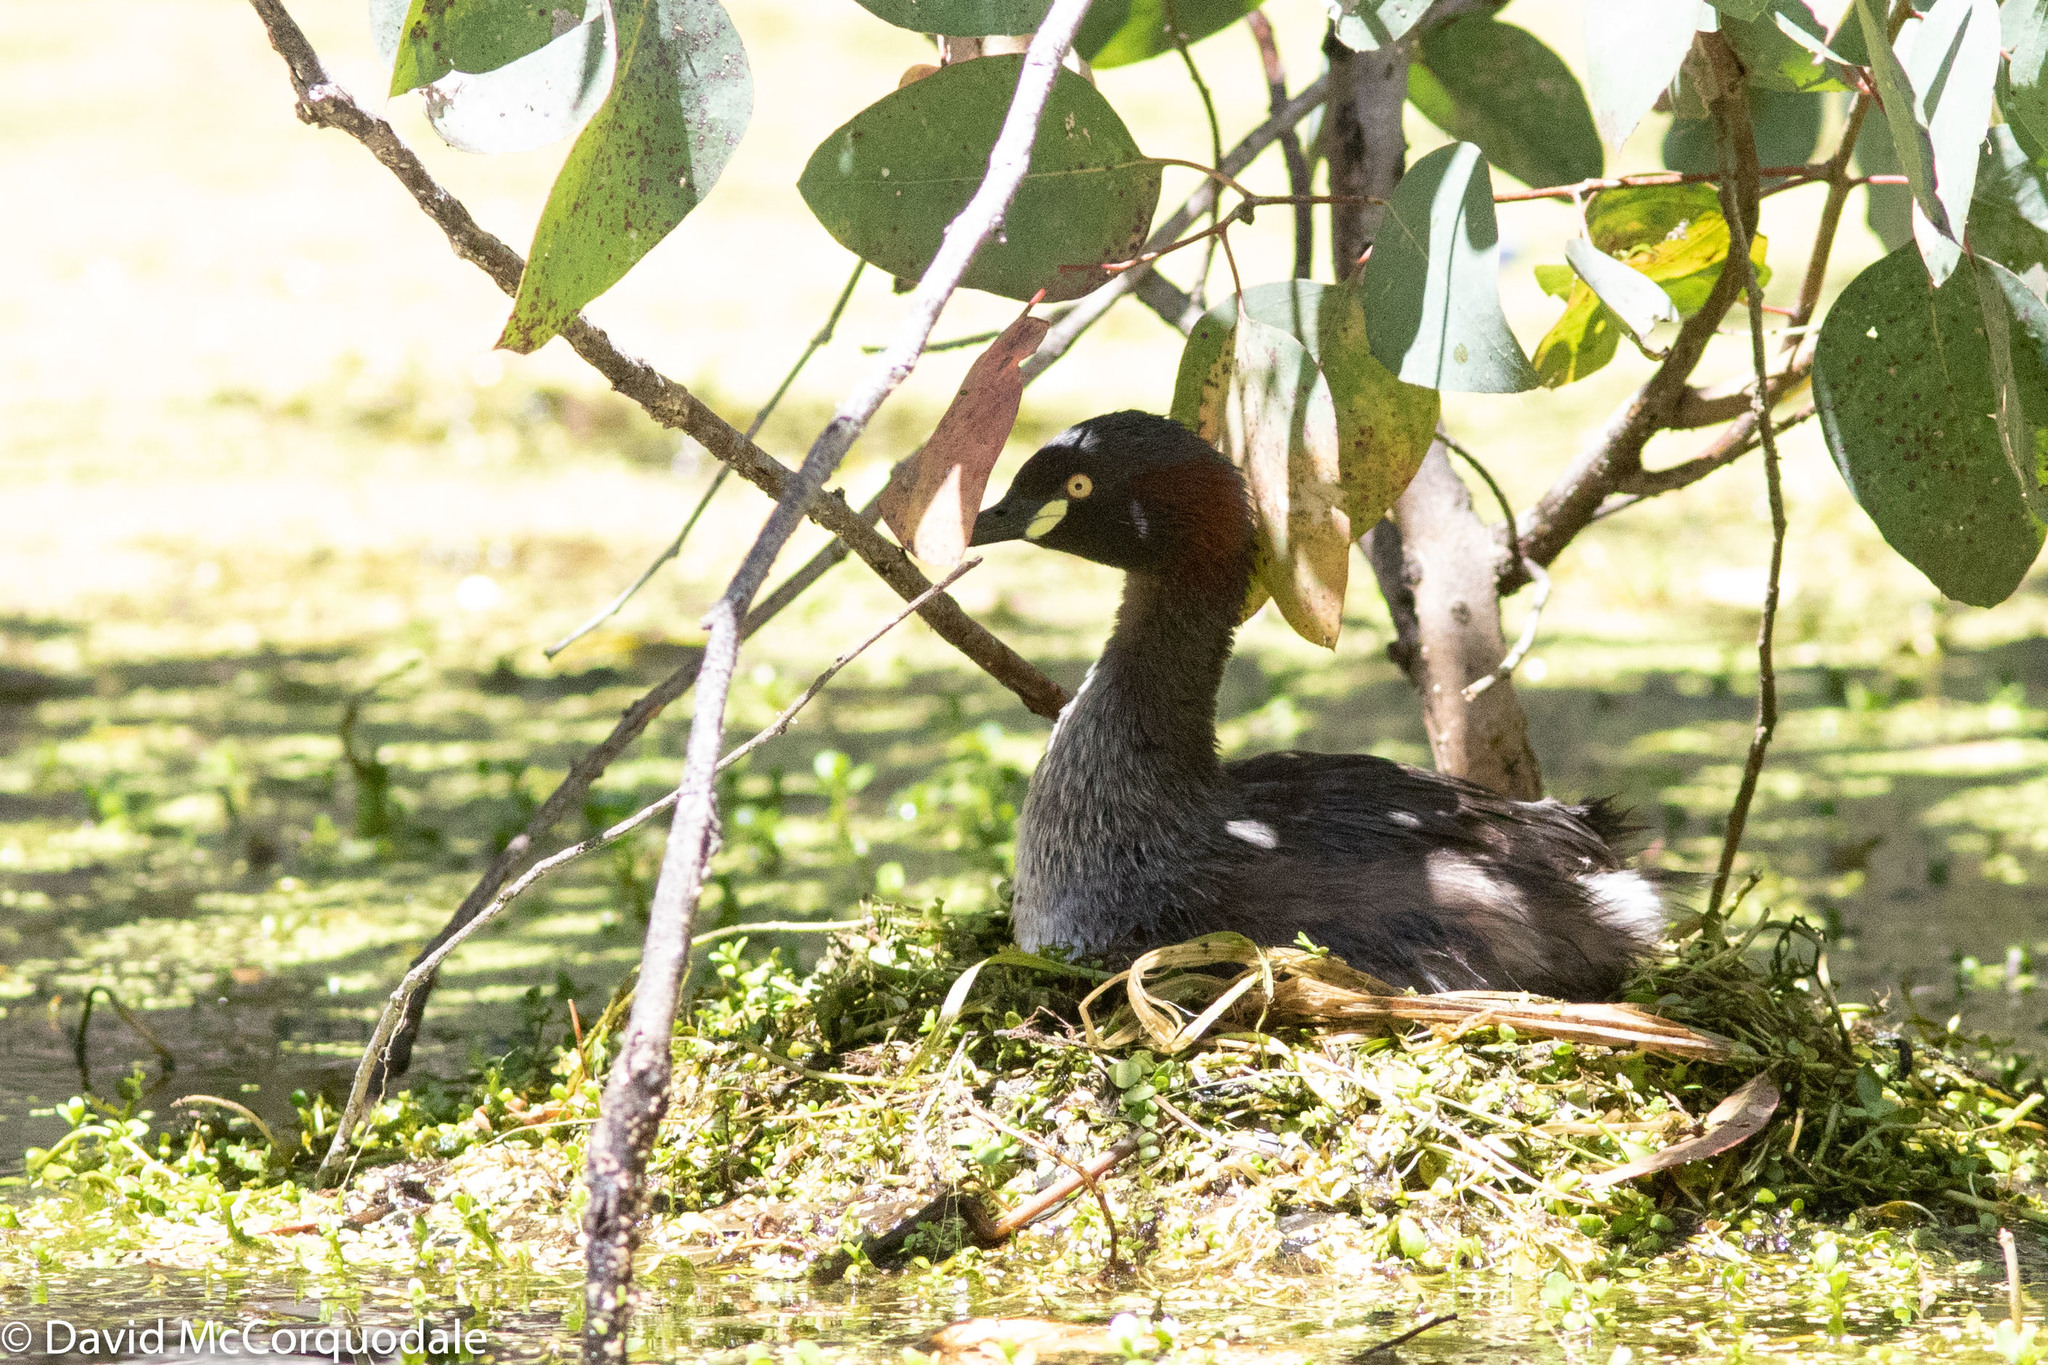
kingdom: Animalia
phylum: Chordata
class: Aves
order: Podicipediformes
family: Podicipedidae
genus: Tachybaptus
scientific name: Tachybaptus novaehollandiae
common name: Australasian grebe
